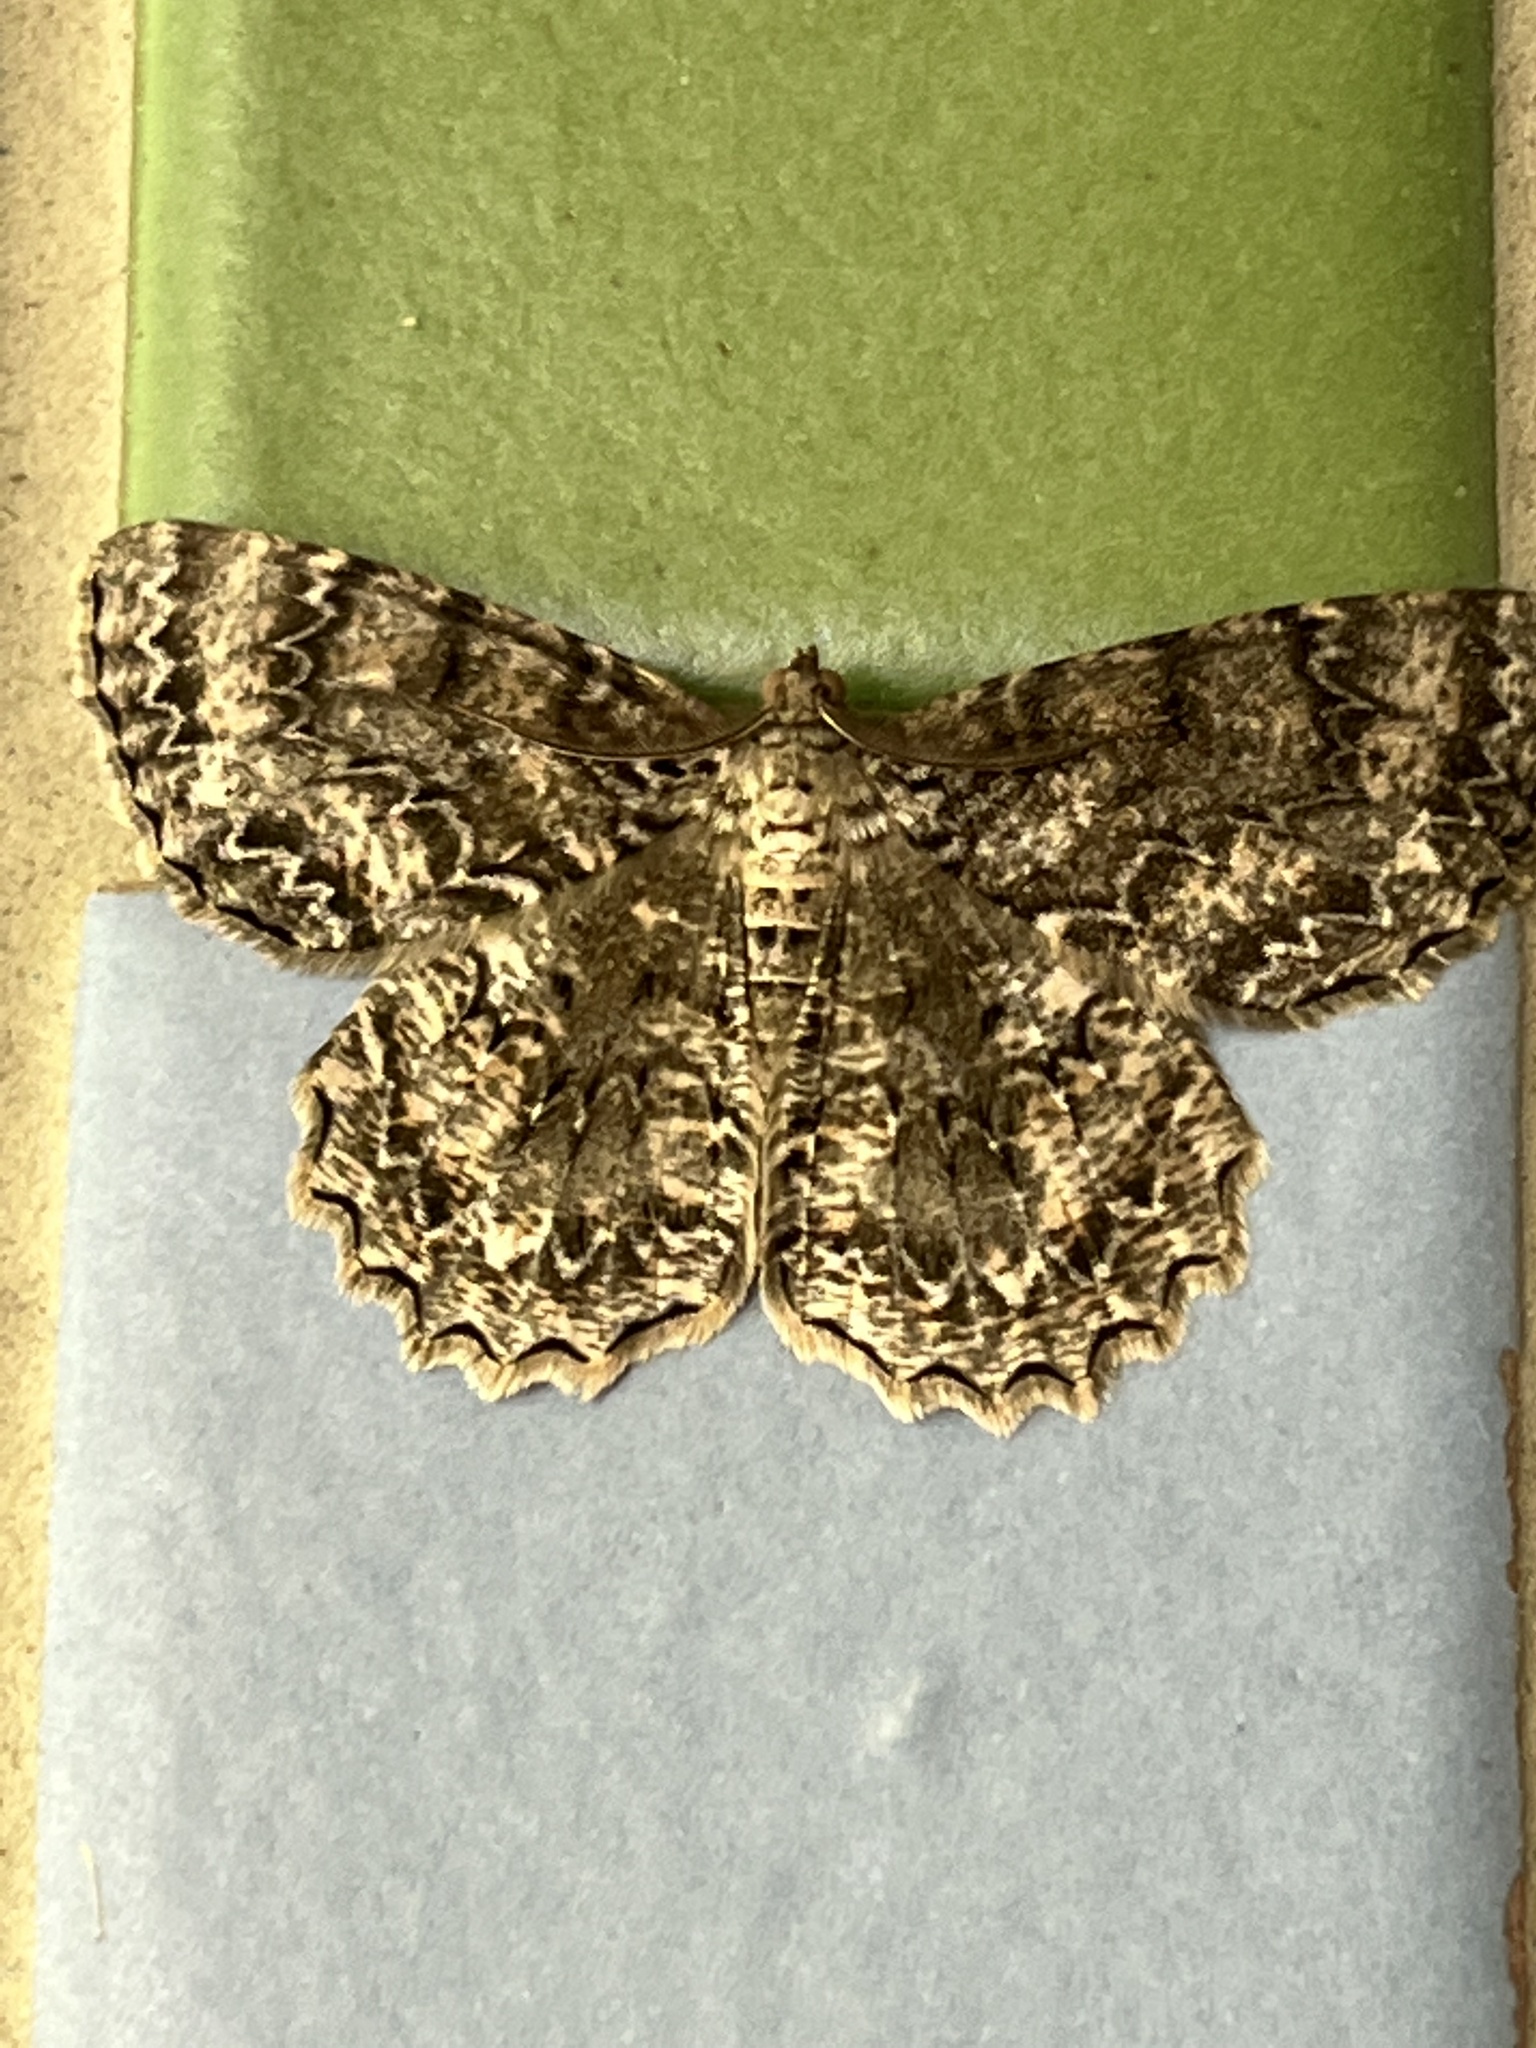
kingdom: Animalia
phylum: Arthropoda
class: Insecta
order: Lepidoptera
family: Geometridae
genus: Epimecis
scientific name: Epimecis hortaria
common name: Tulip-tree beauty
